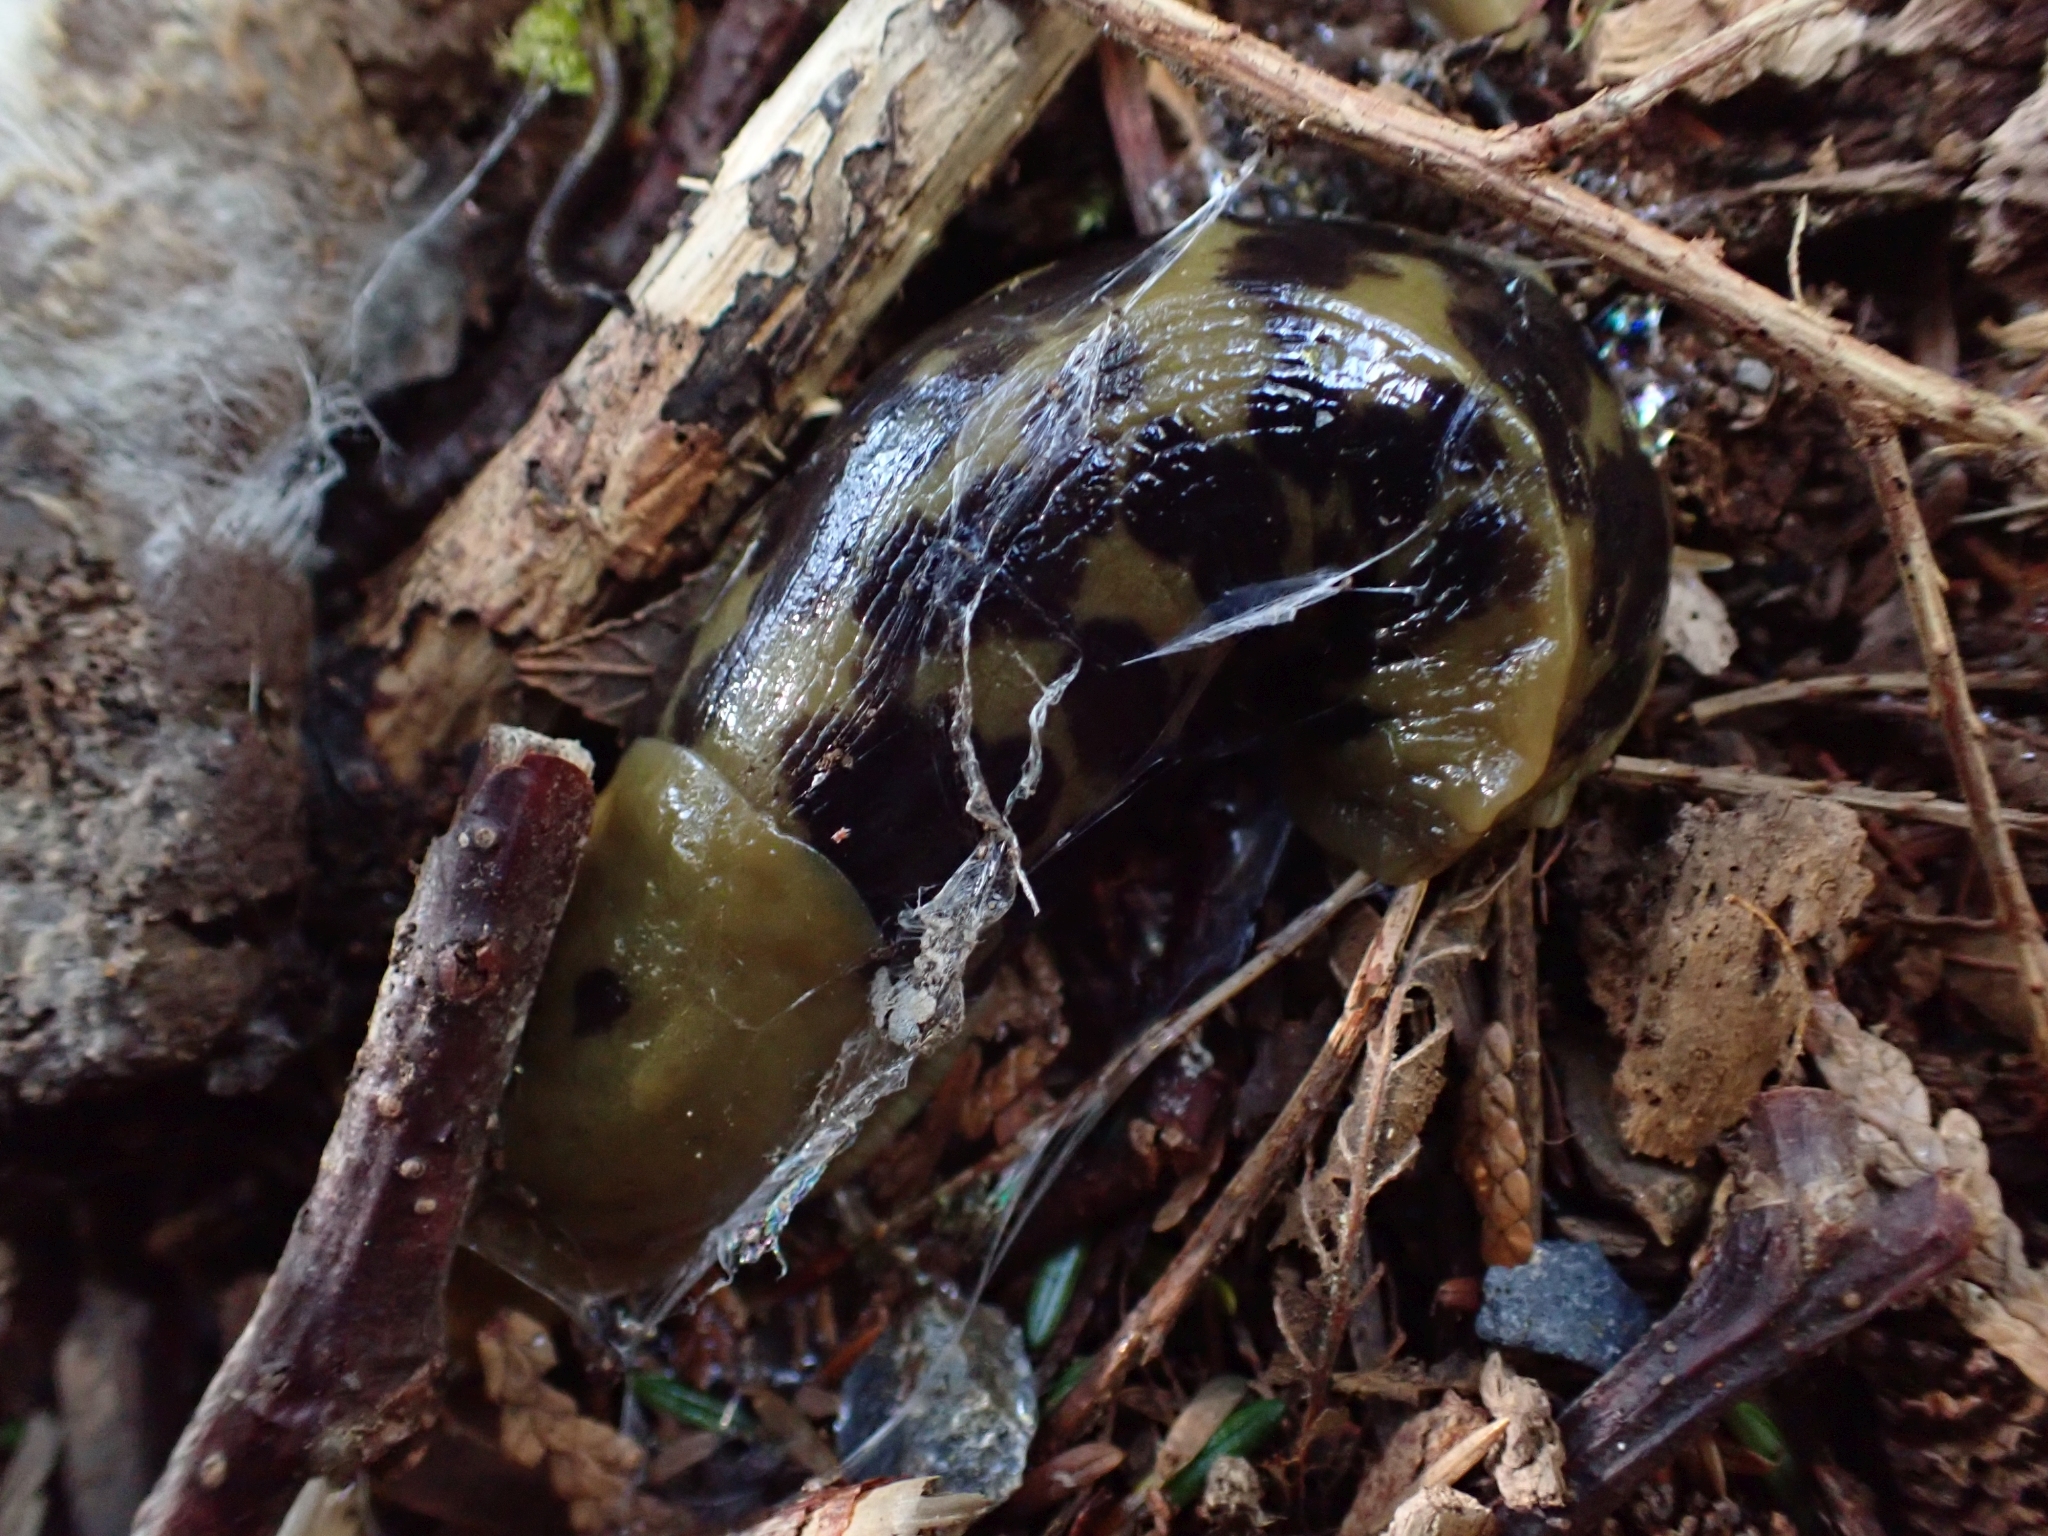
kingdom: Animalia
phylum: Mollusca
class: Gastropoda
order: Stylommatophora
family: Ariolimacidae
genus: Ariolimax
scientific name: Ariolimax columbianus
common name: Pacific banana slug
